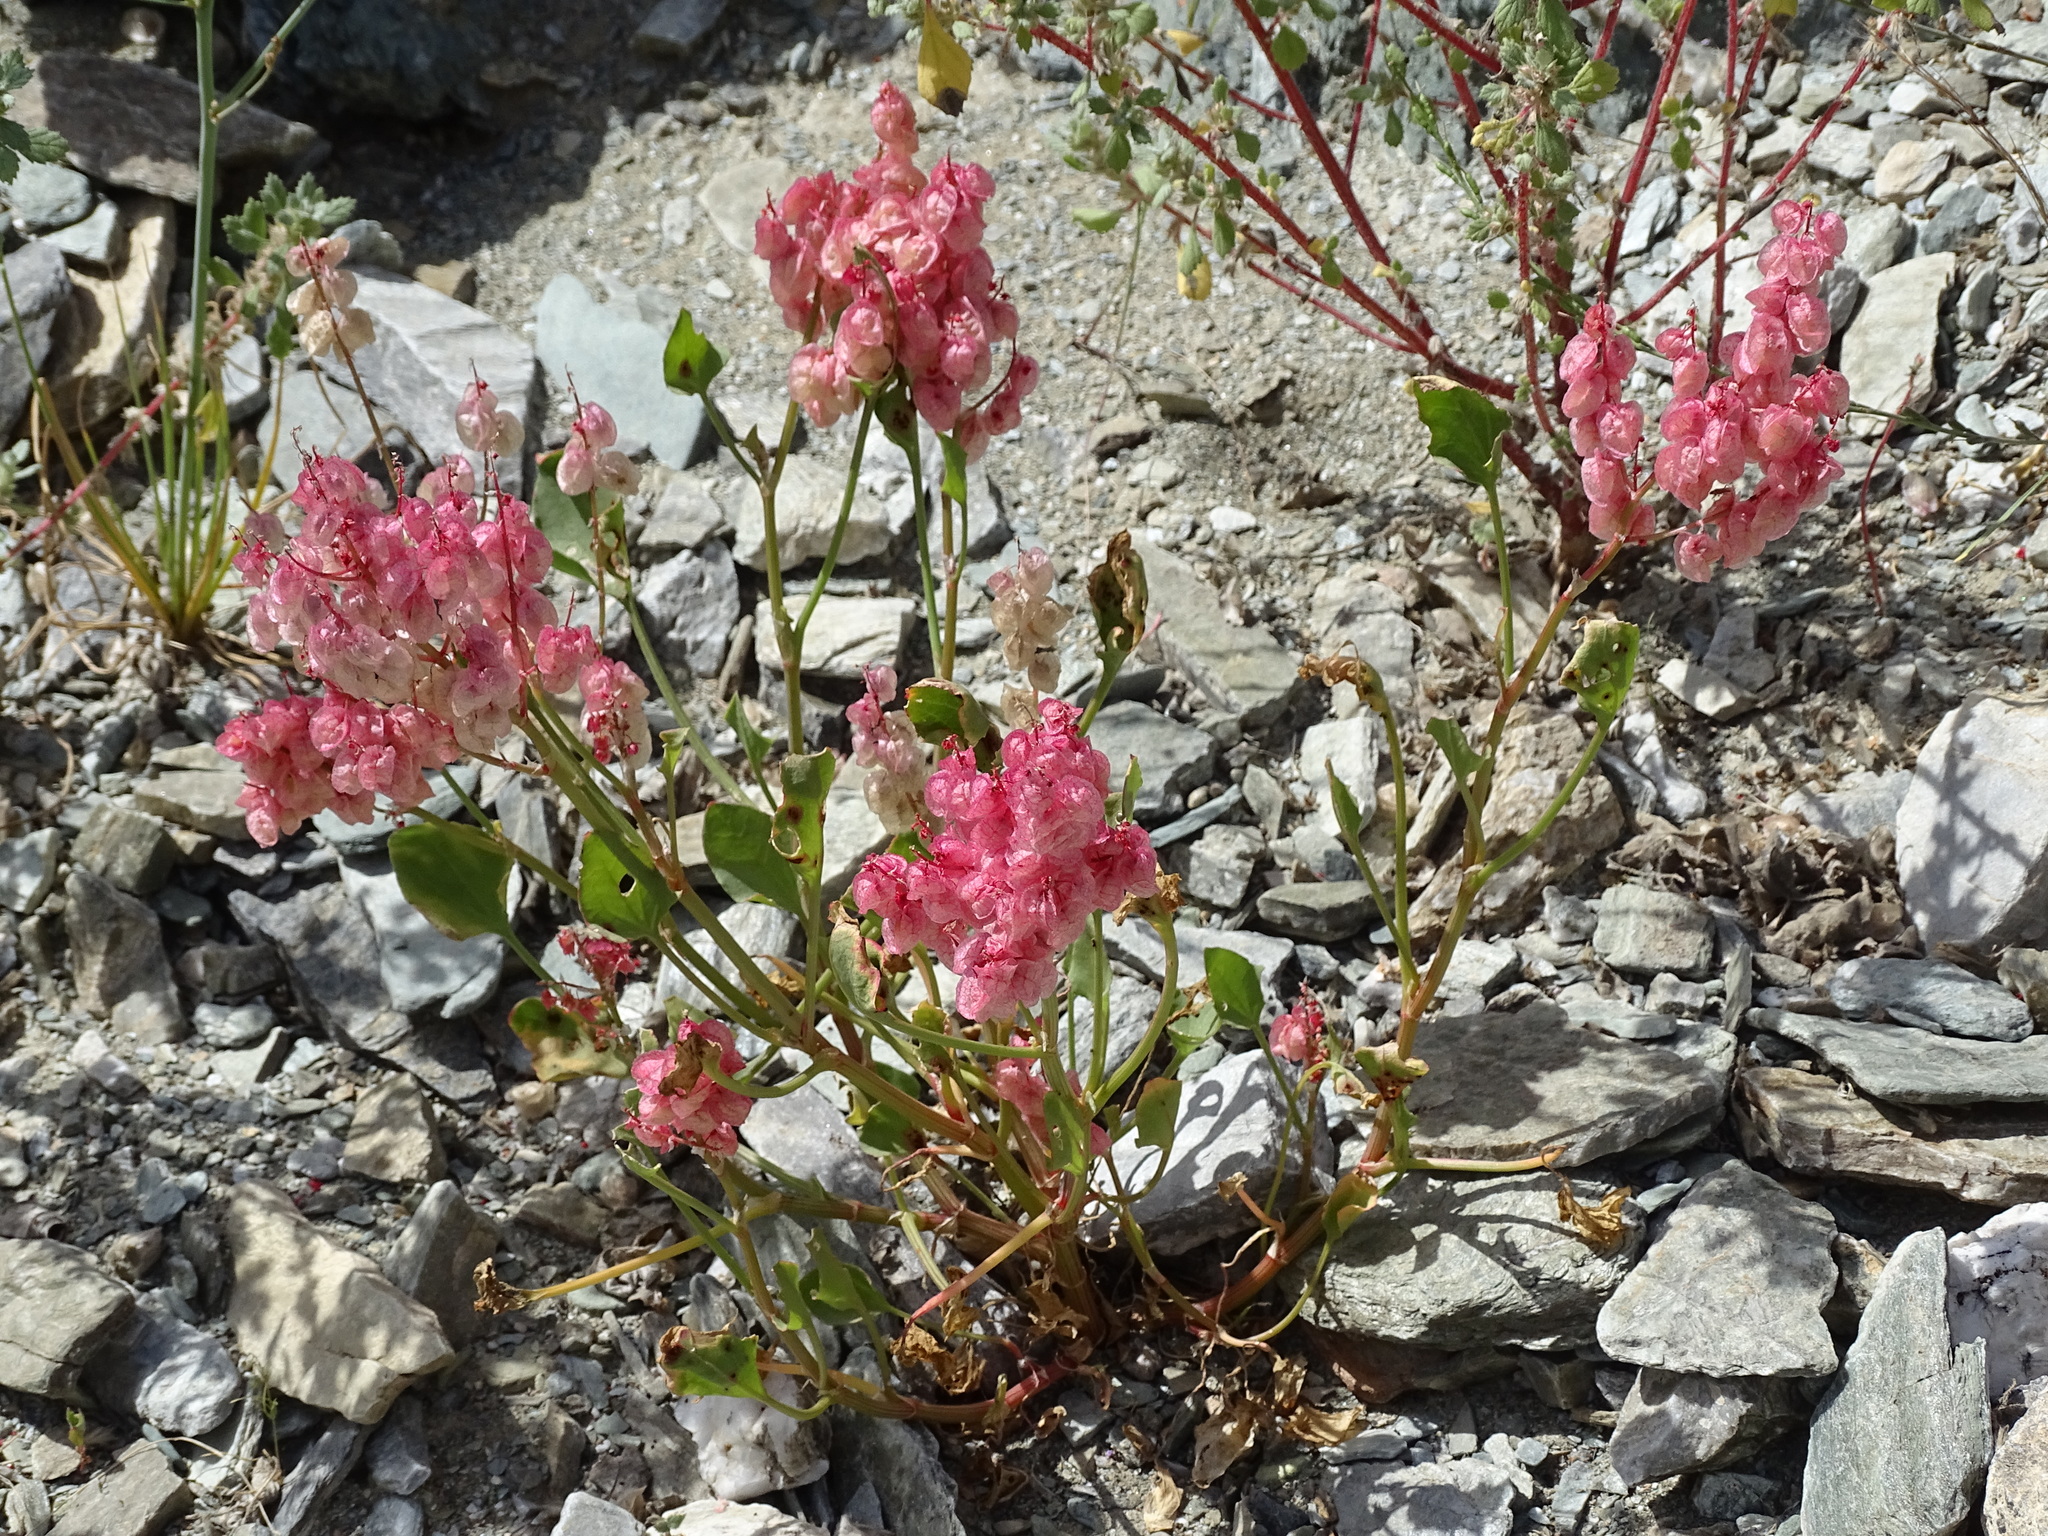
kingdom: Plantae
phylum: Tracheophyta
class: Magnoliopsida
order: Caryophyllales
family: Polygonaceae
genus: Rumex
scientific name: Rumex vesicarius
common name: Bladder dock
